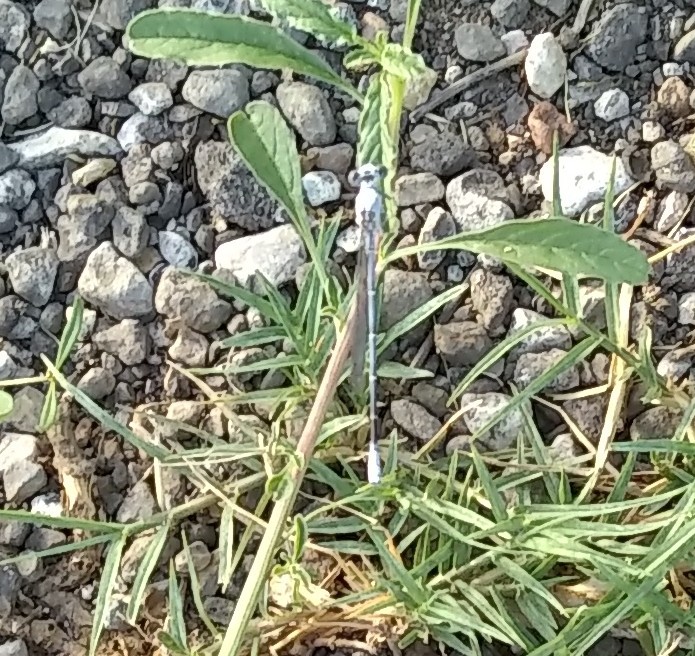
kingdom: Animalia
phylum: Arthropoda
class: Insecta
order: Odonata
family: Coenagrionidae
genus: Argia
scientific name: Argia moesta
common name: Powdered dancer
